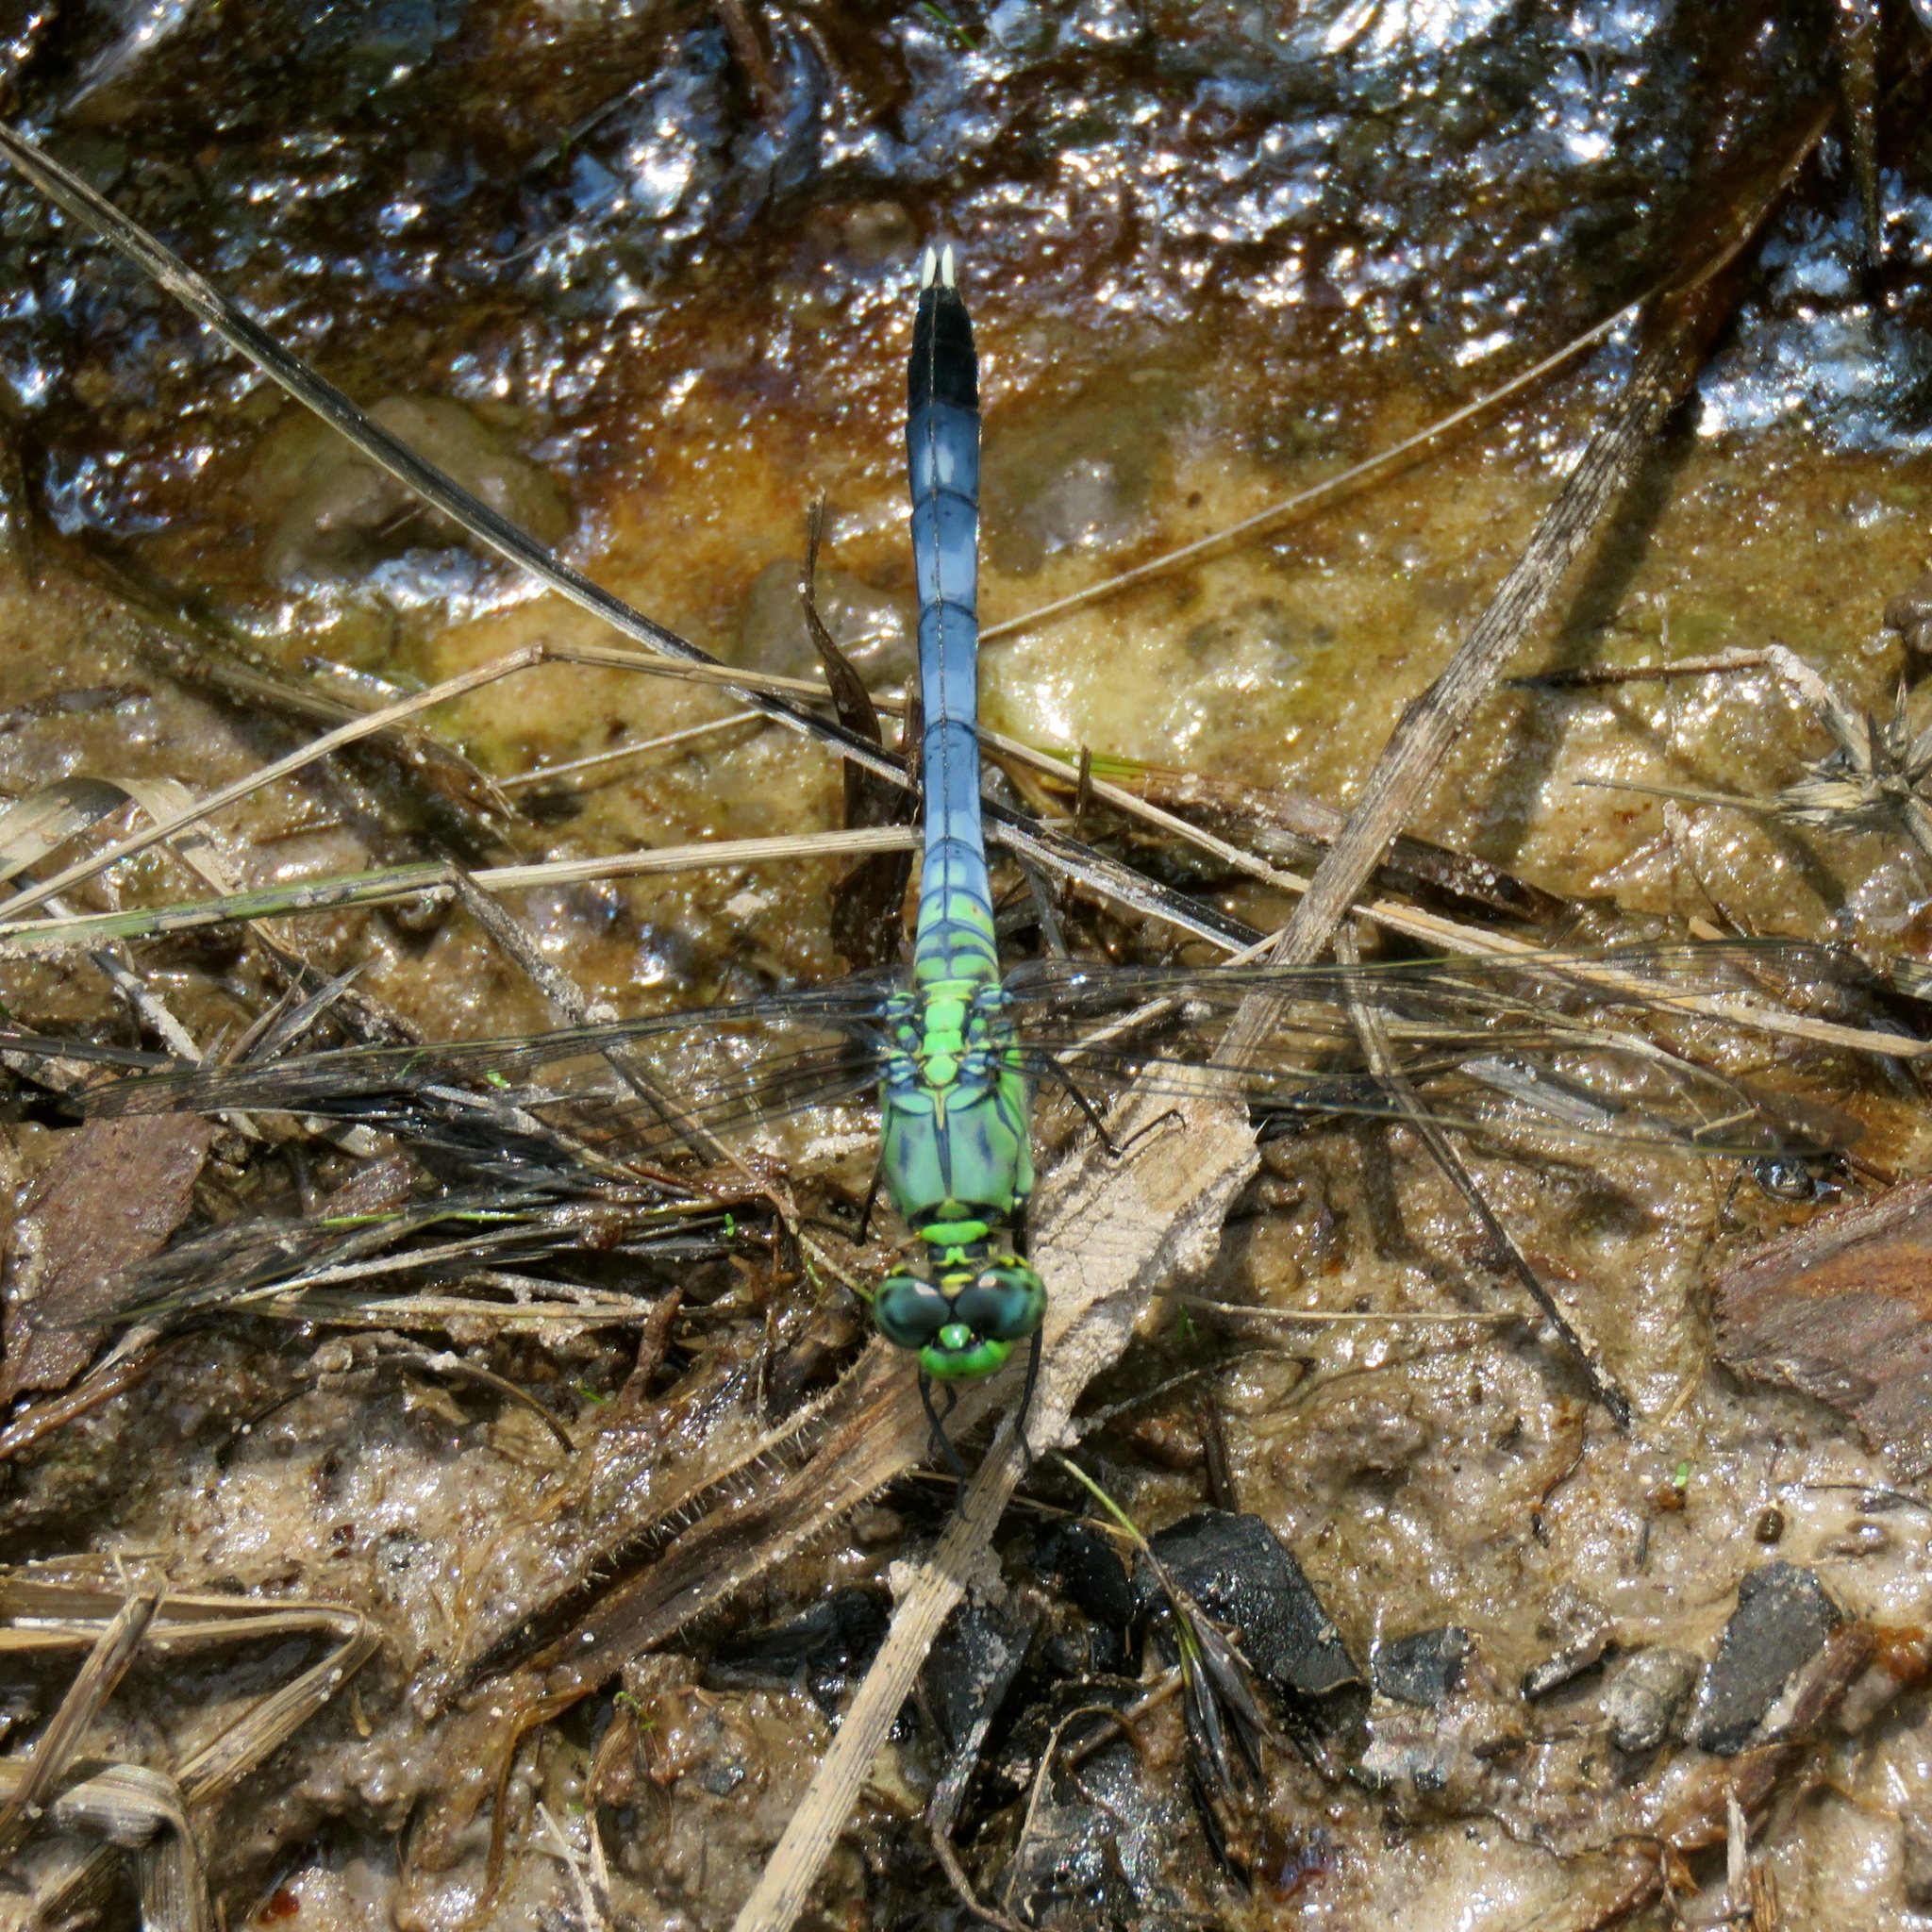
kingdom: Animalia
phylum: Arthropoda
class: Insecta
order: Odonata
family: Libellulidae
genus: Erythemis
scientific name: Erythemis simplicicollis
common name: Eastern pondhawk
